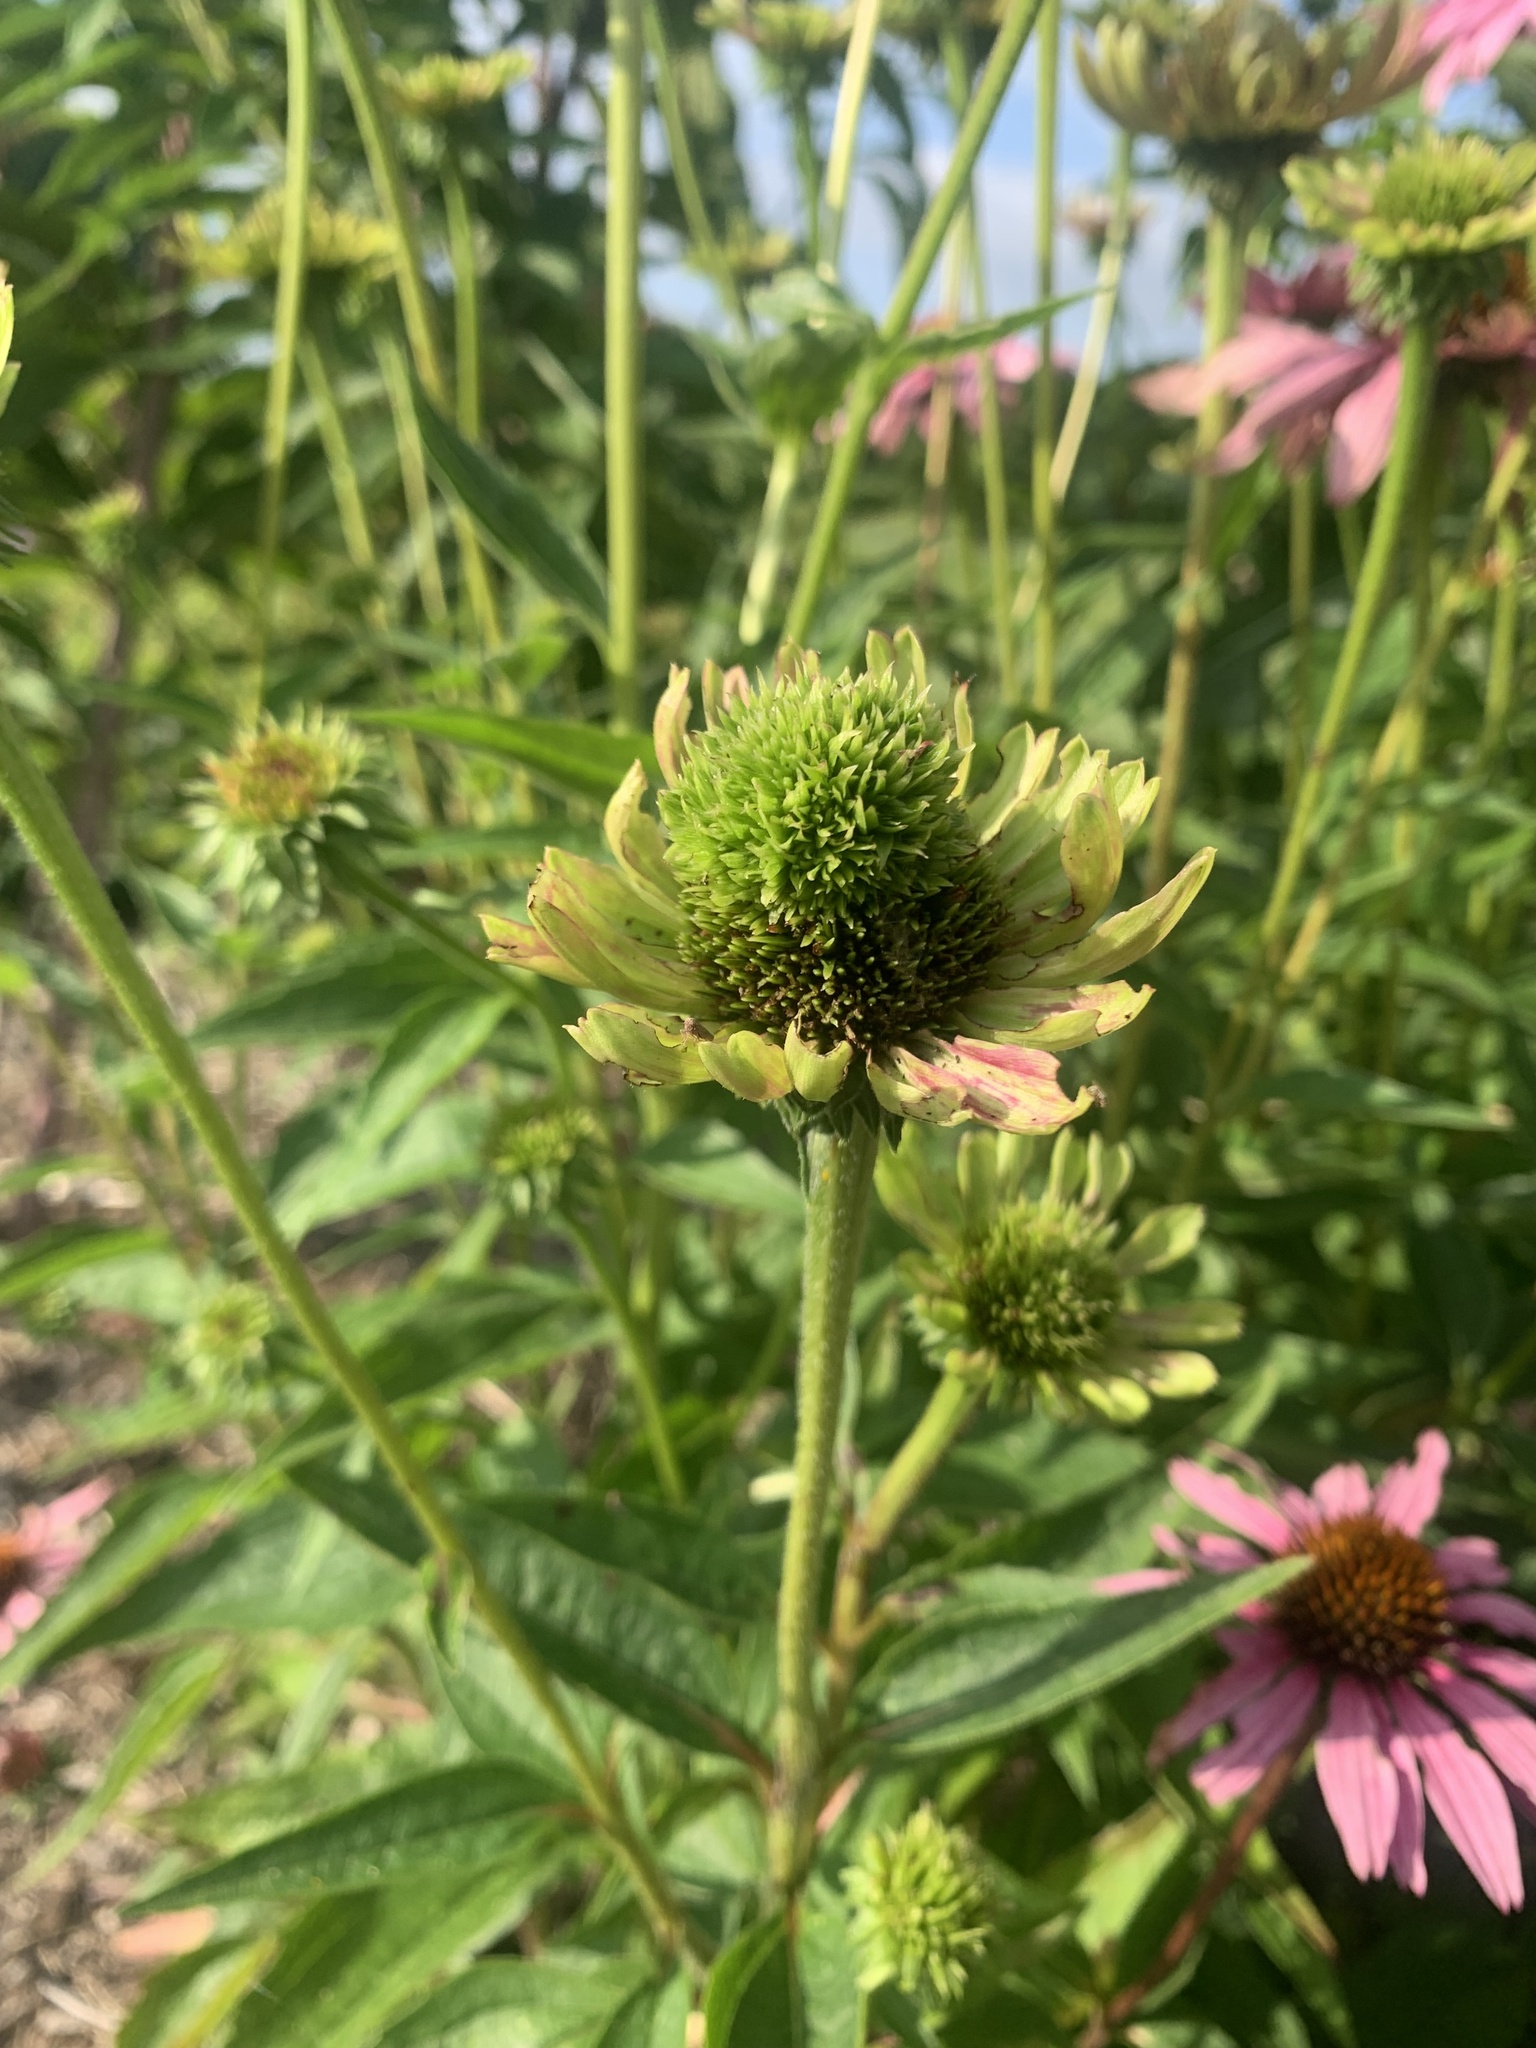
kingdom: Bacteria
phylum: Firmicutes
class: Bacilli
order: Acholeplasmatales
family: Acholeplasmataceae
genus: Phytoplasma
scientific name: Phytoplasma
